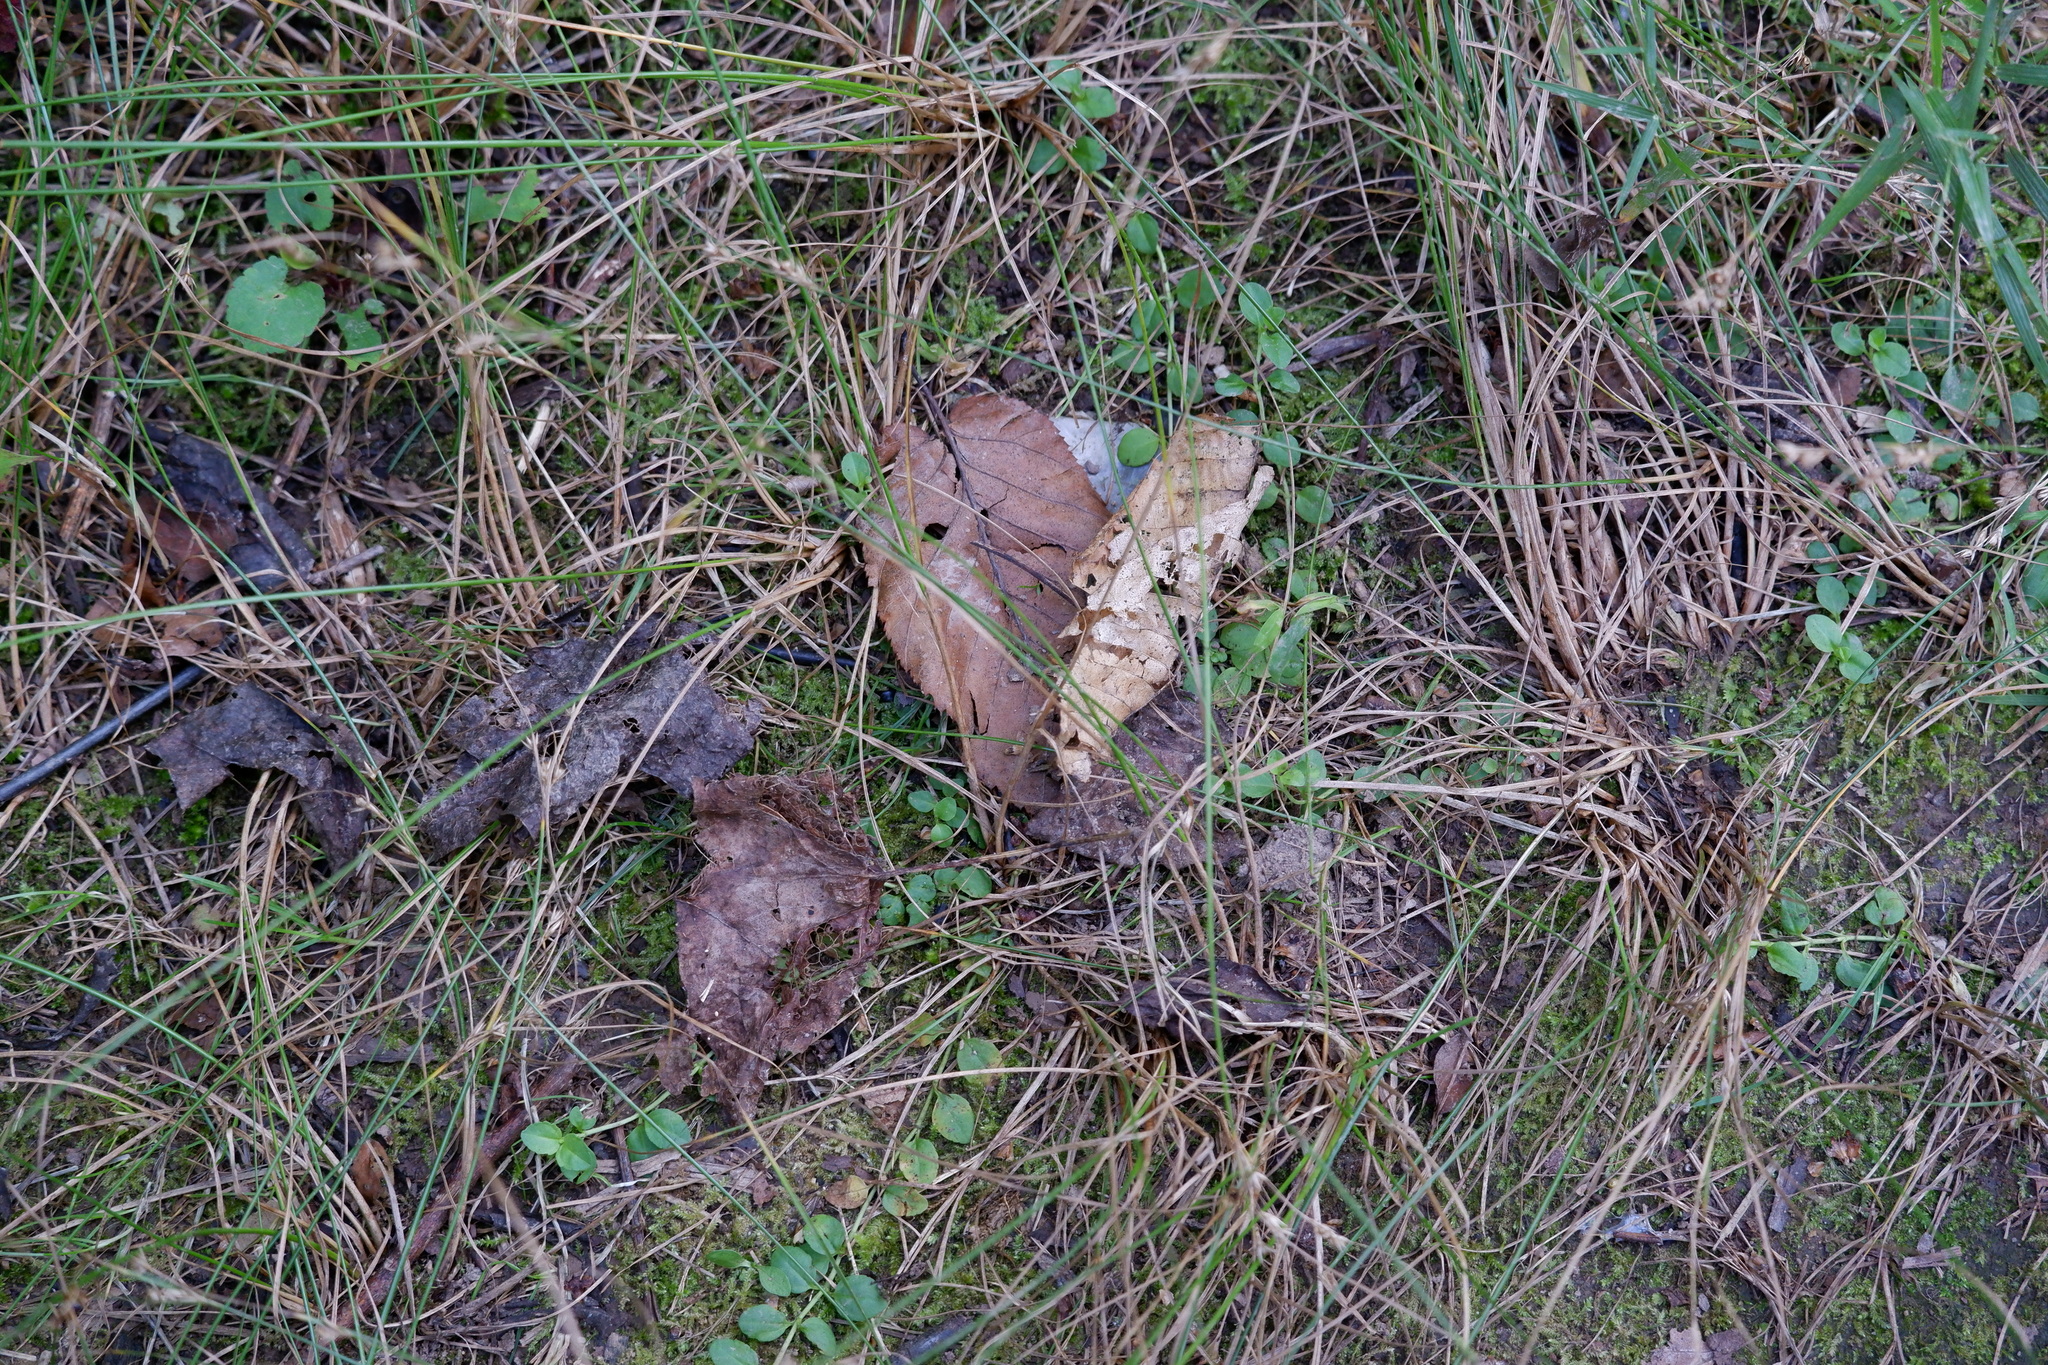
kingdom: Plantae
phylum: Tracheophyta
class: Magnoliopsida
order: Lamiales
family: Plantaginaceae
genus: Veronica
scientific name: Veronica serpyllifolia
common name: Thyme-leaved speedwell
